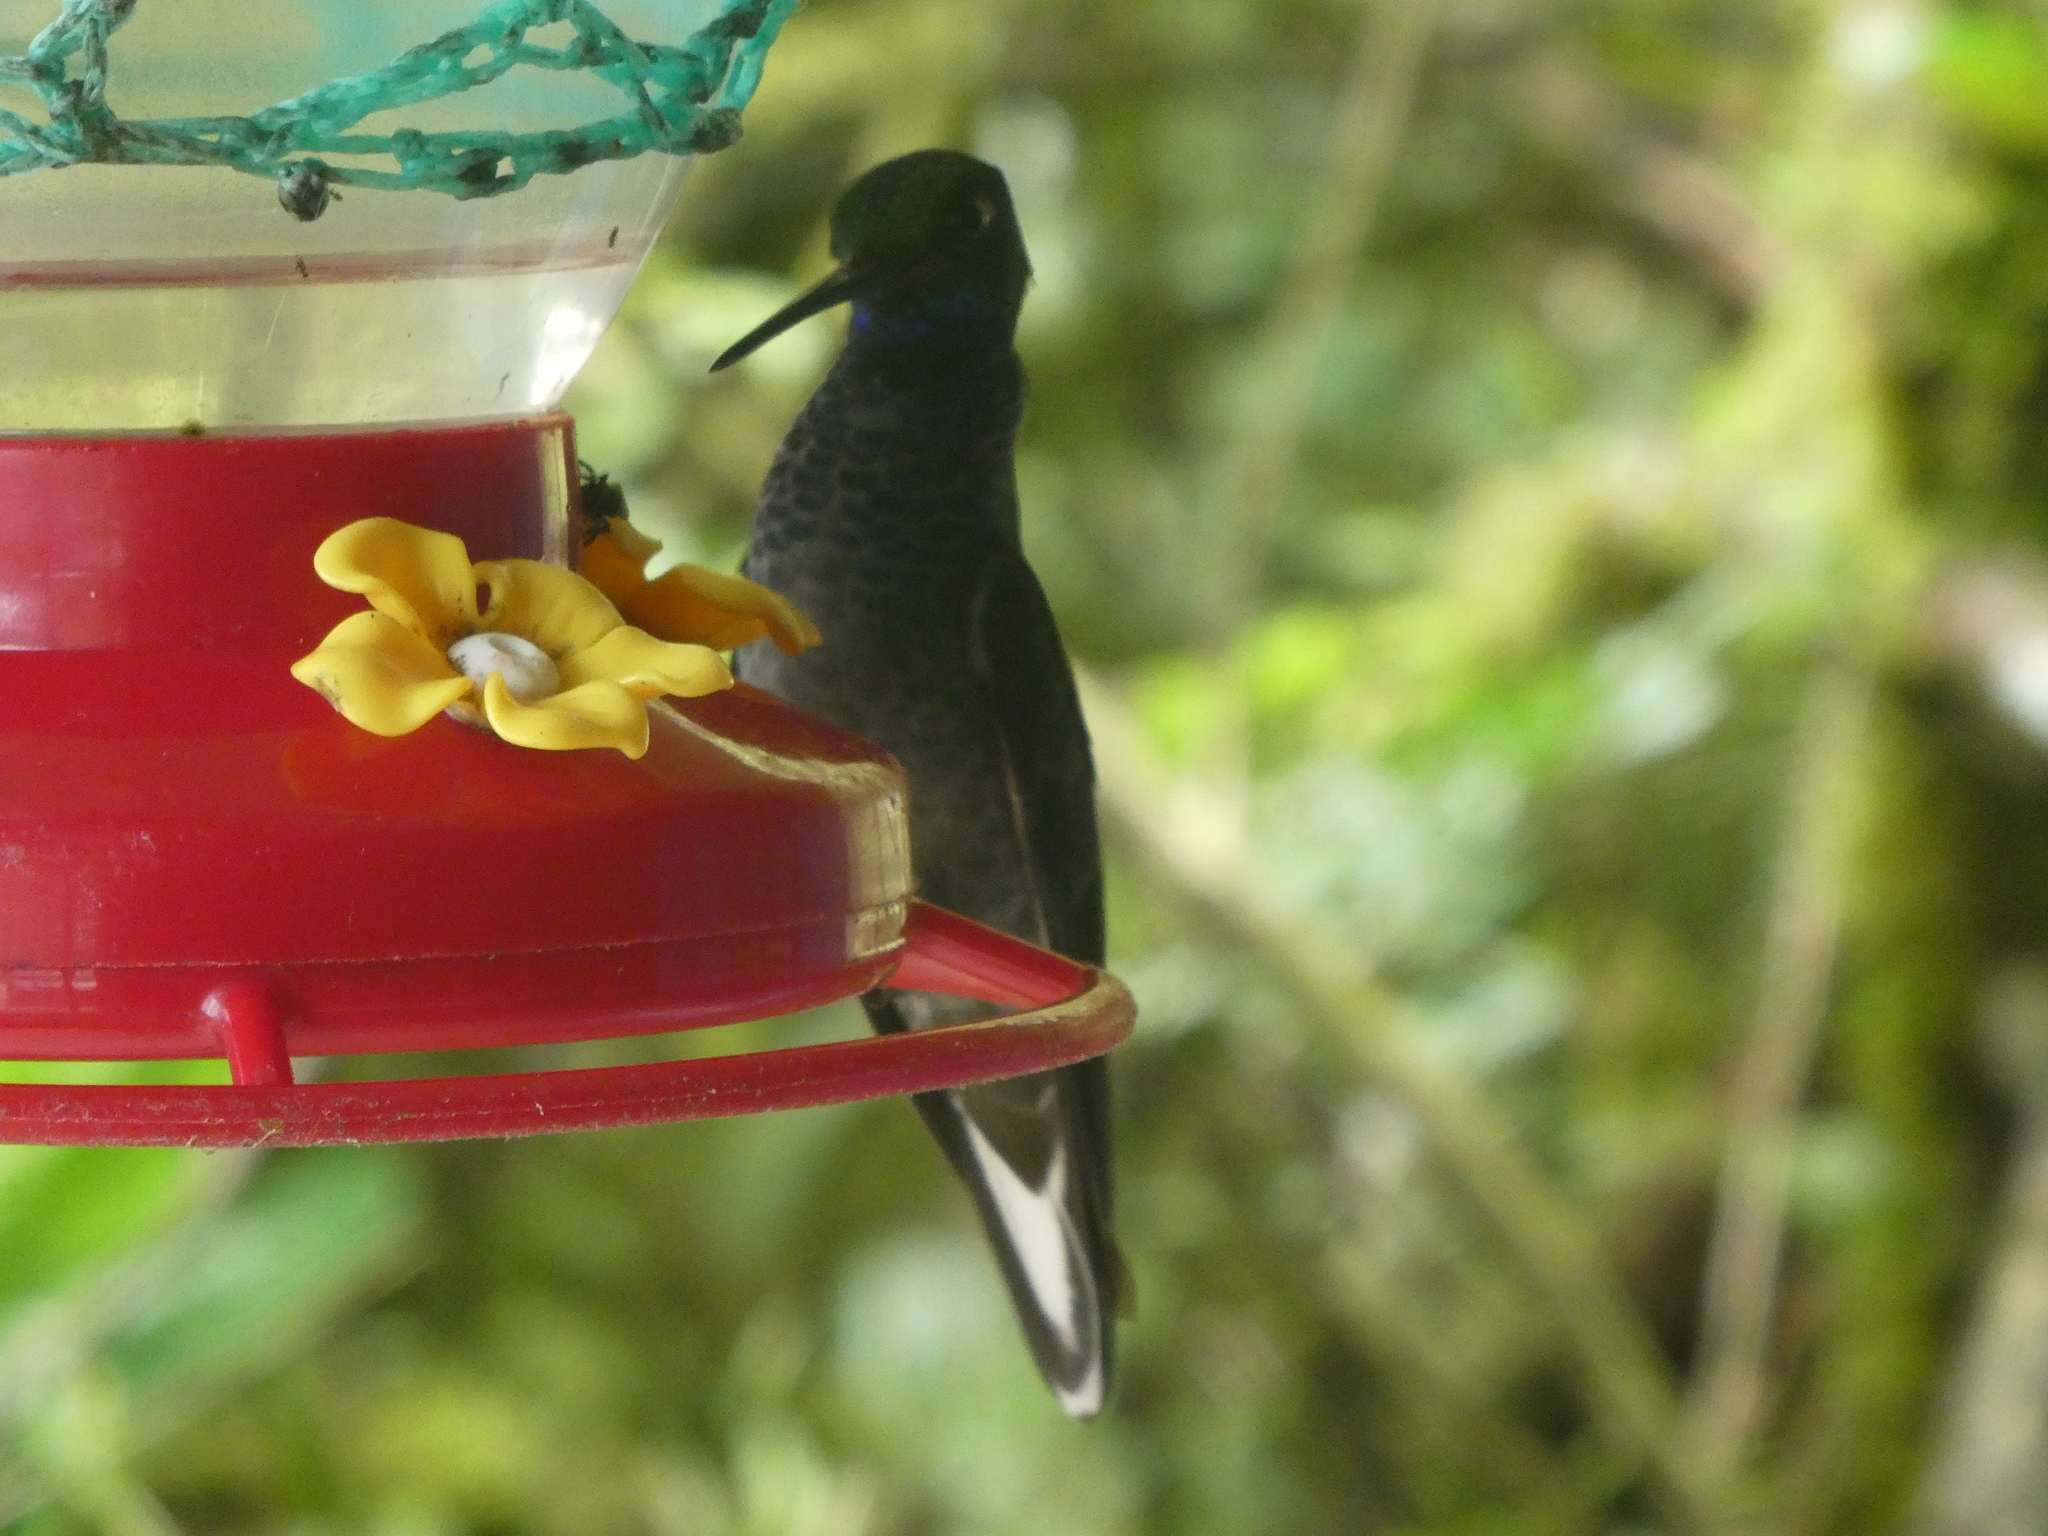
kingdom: Animalia
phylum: Chordata
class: Aves
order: Apodiformes
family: Trochilidae
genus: Urochroa
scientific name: Urochroa leucura
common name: Green-backed hillstar
